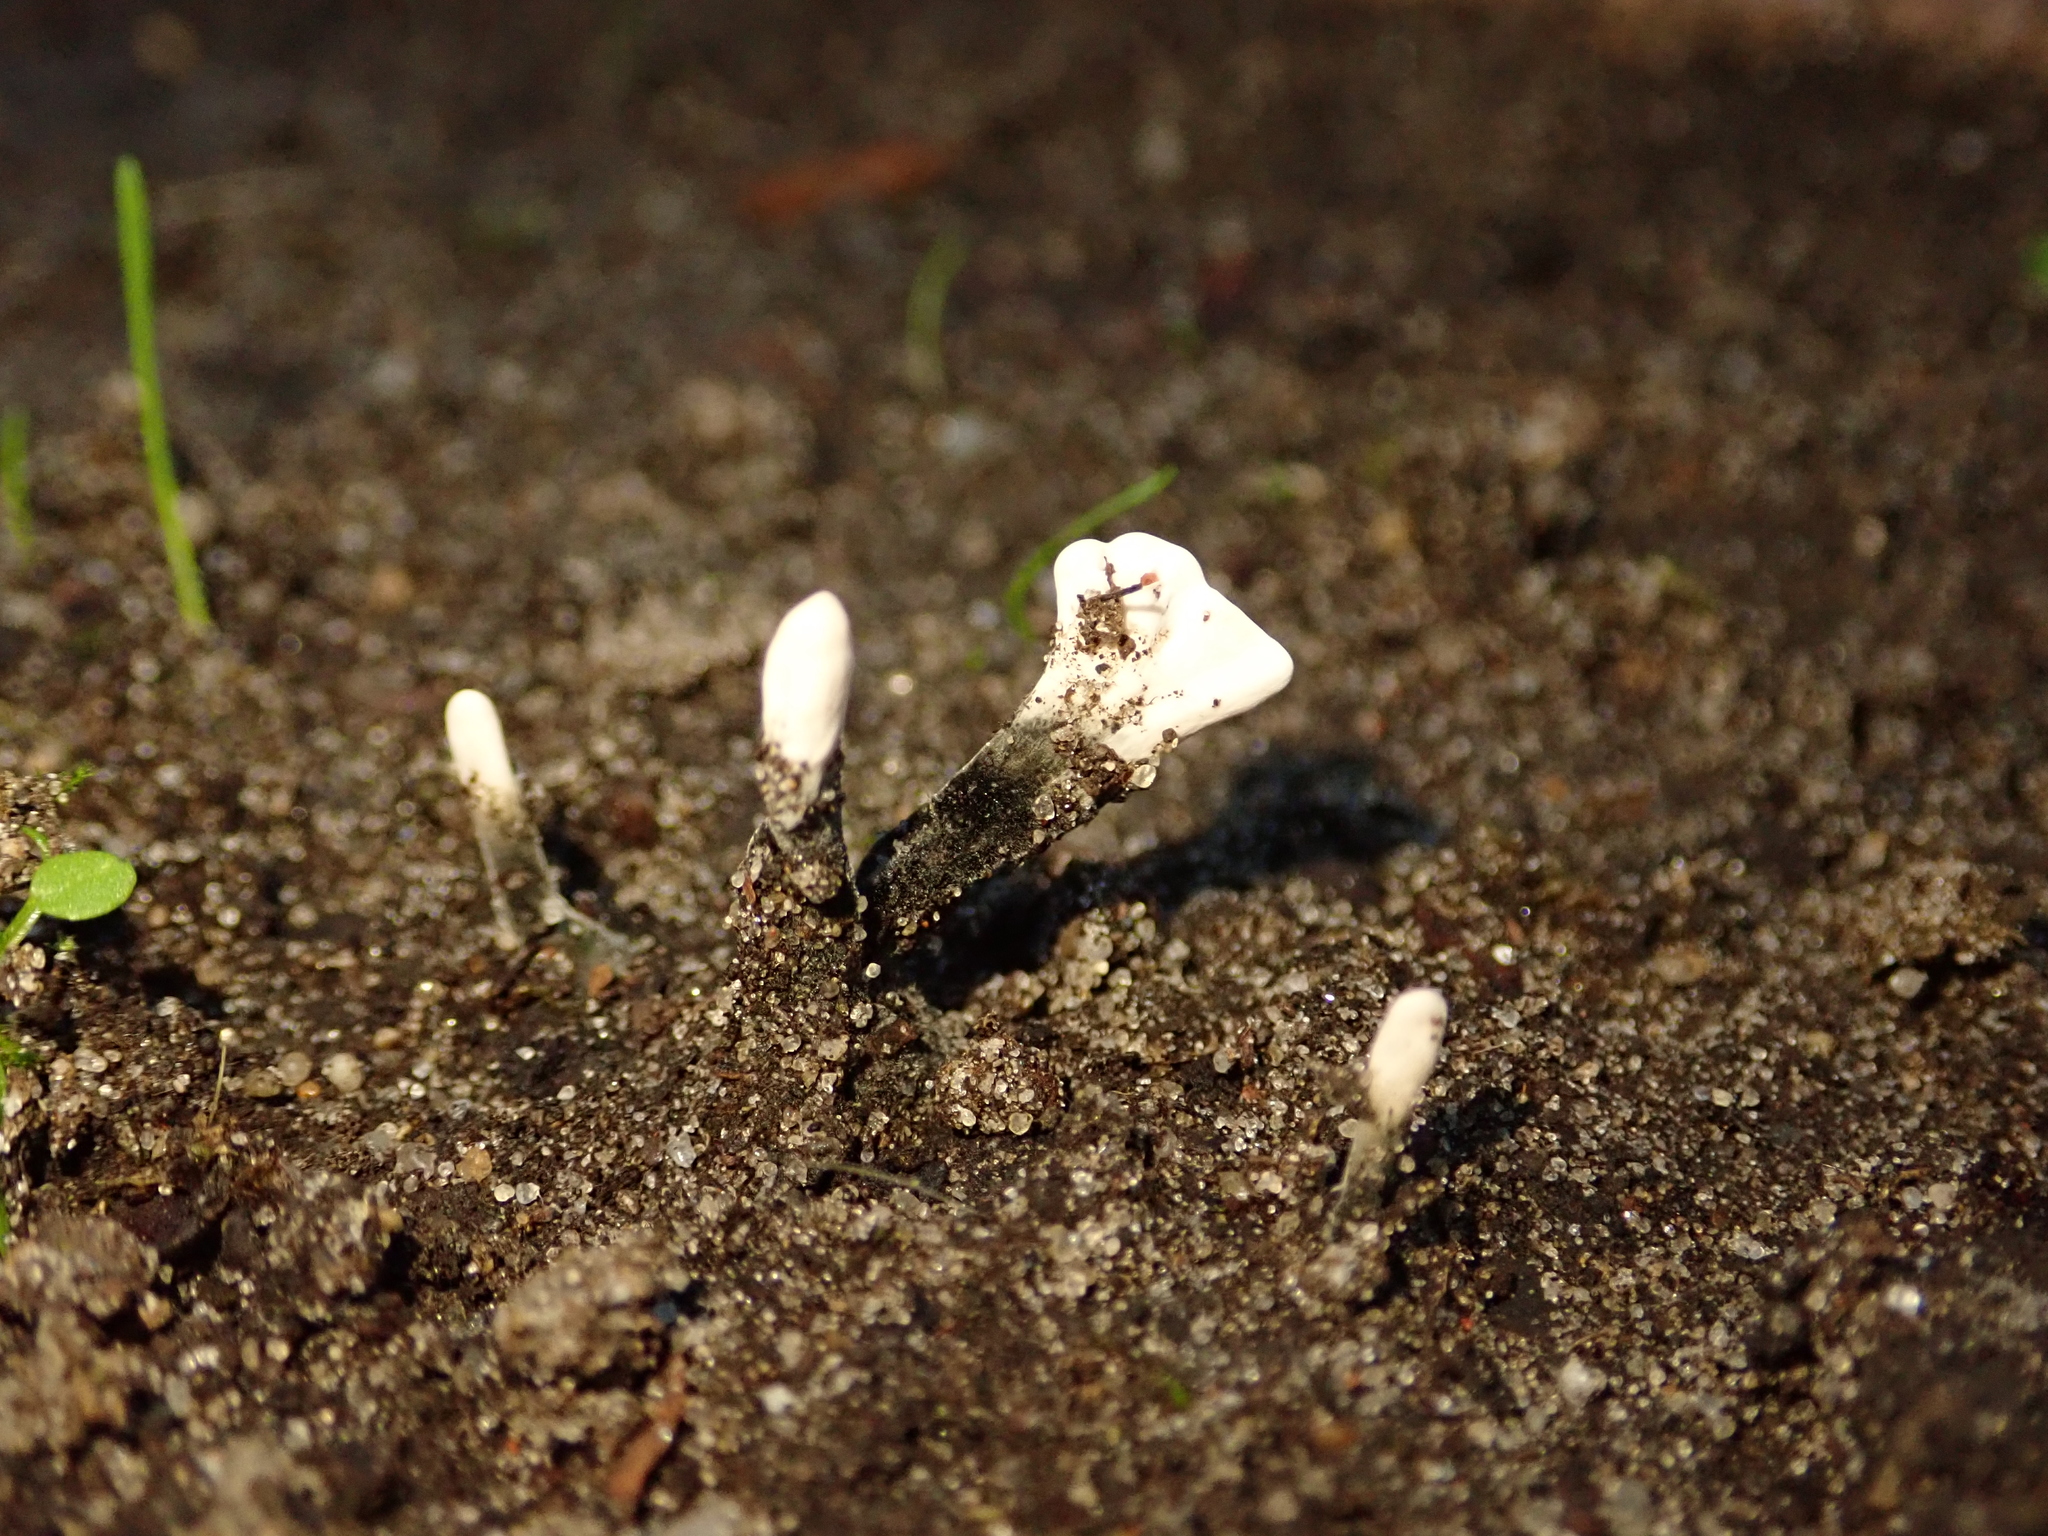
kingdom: Fungi
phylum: Ascomycota
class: Sordariomycetes
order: Xylariales
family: Xylariaceae
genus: Xylaria
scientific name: Xylaria hypoxylon
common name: Candle-snuff fungus
